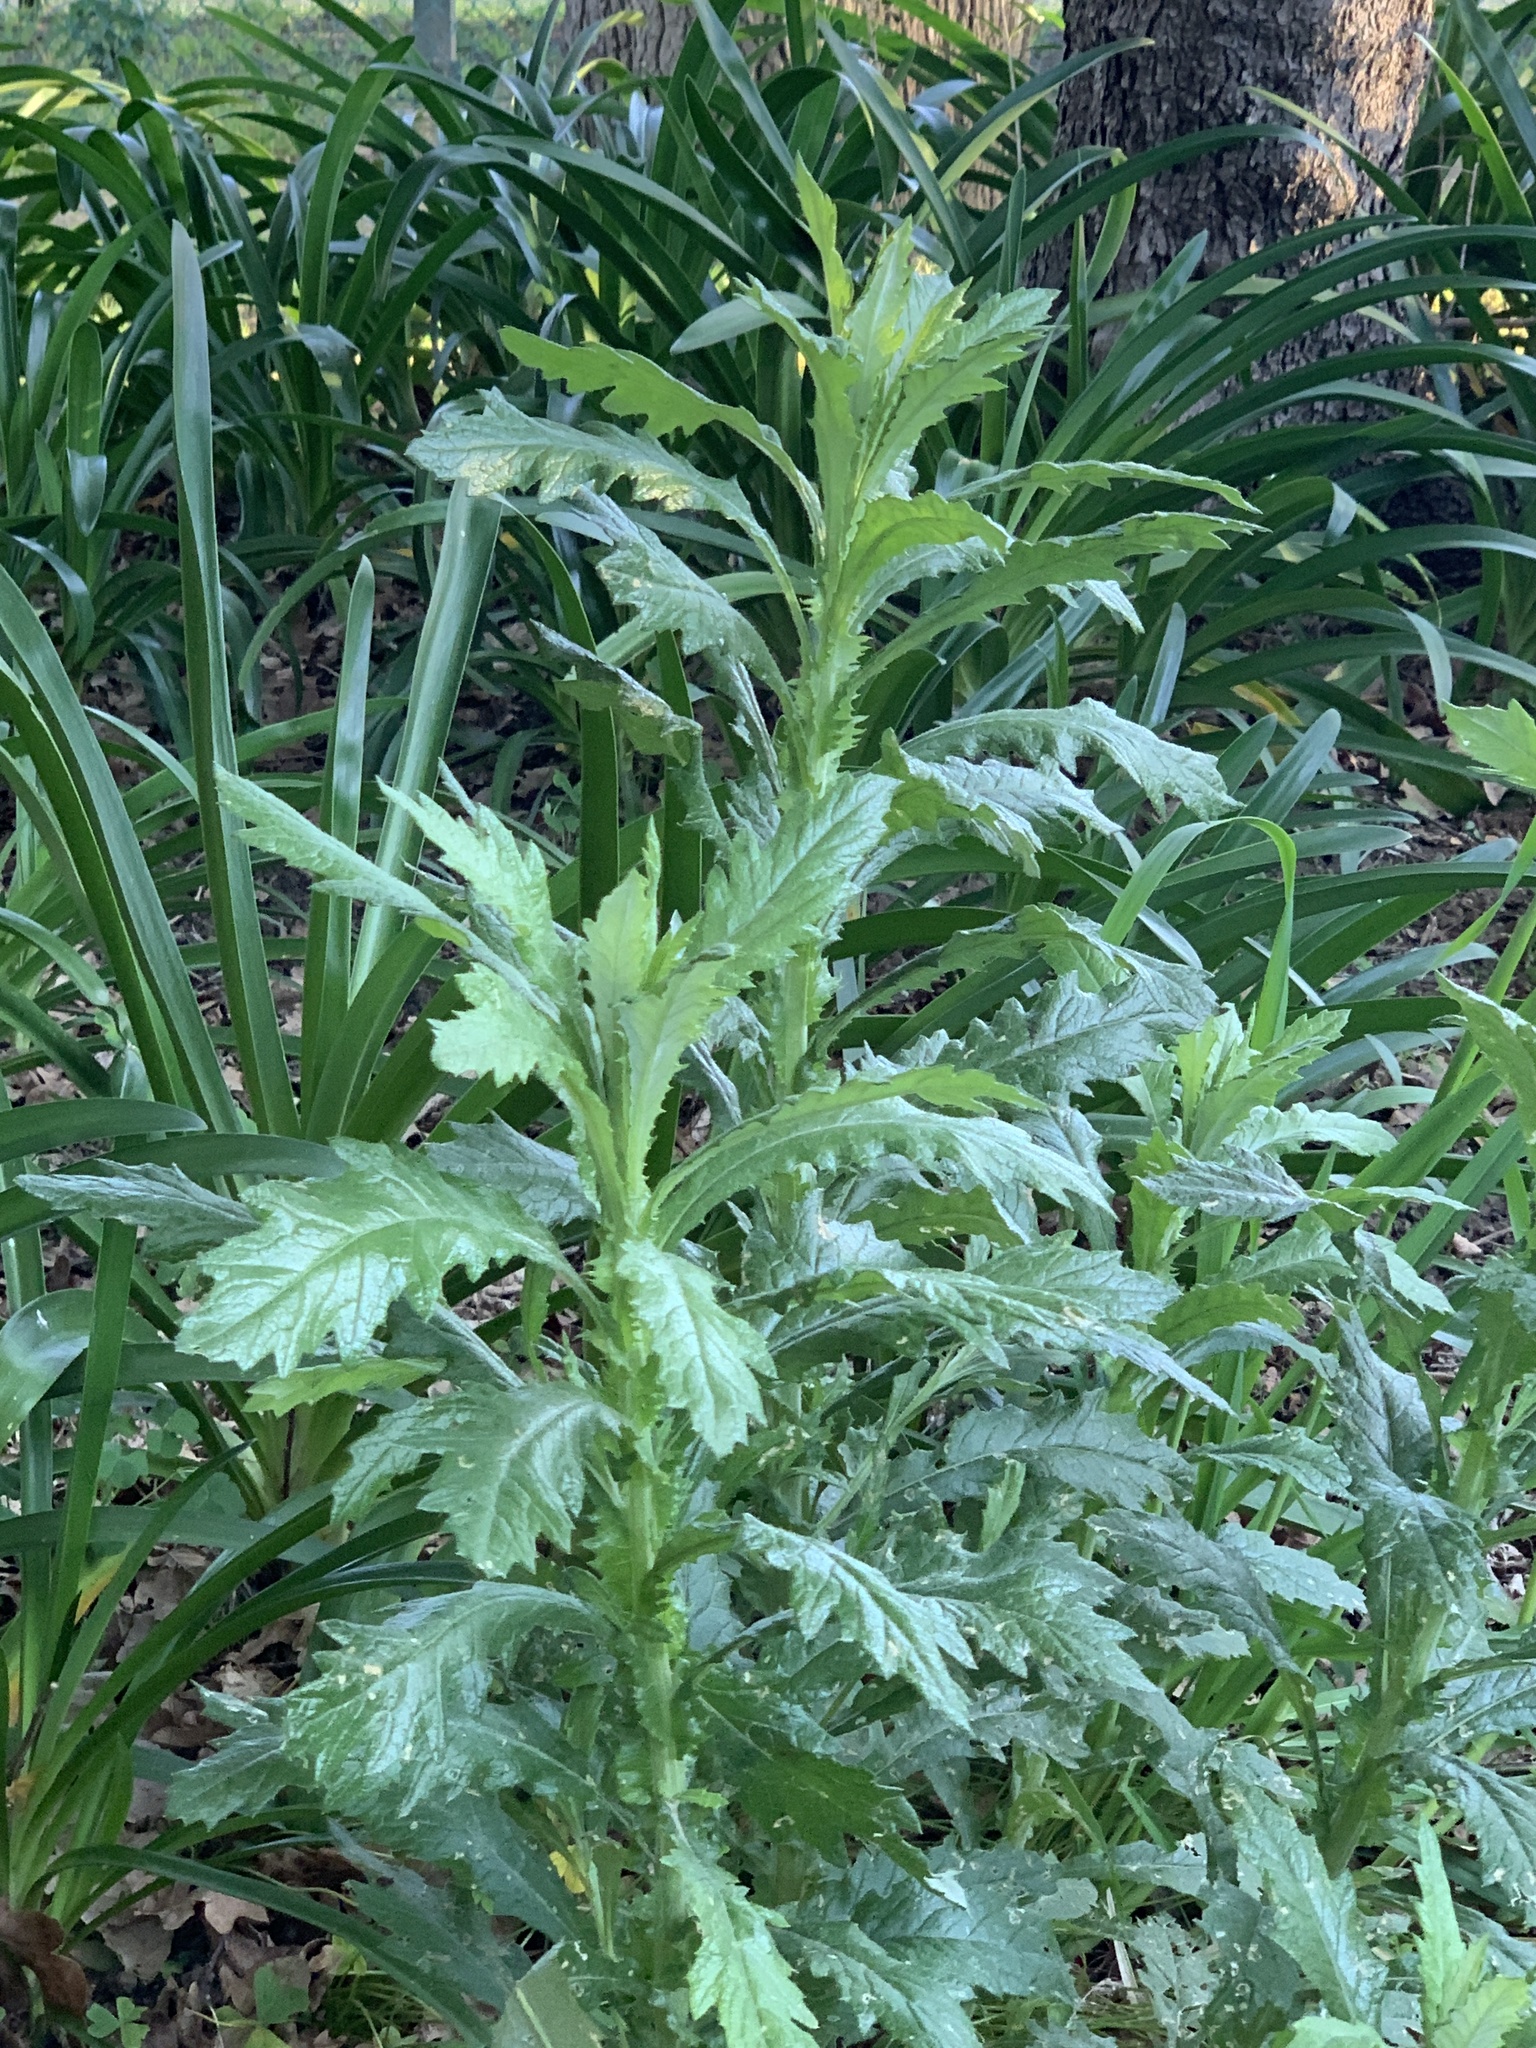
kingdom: Plantae
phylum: Tracheophyta
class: Magnoliopsida
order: Asterales
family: Asteraceae
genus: Senecio
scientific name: Senecio pterophorus
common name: Shoddy ragwort
